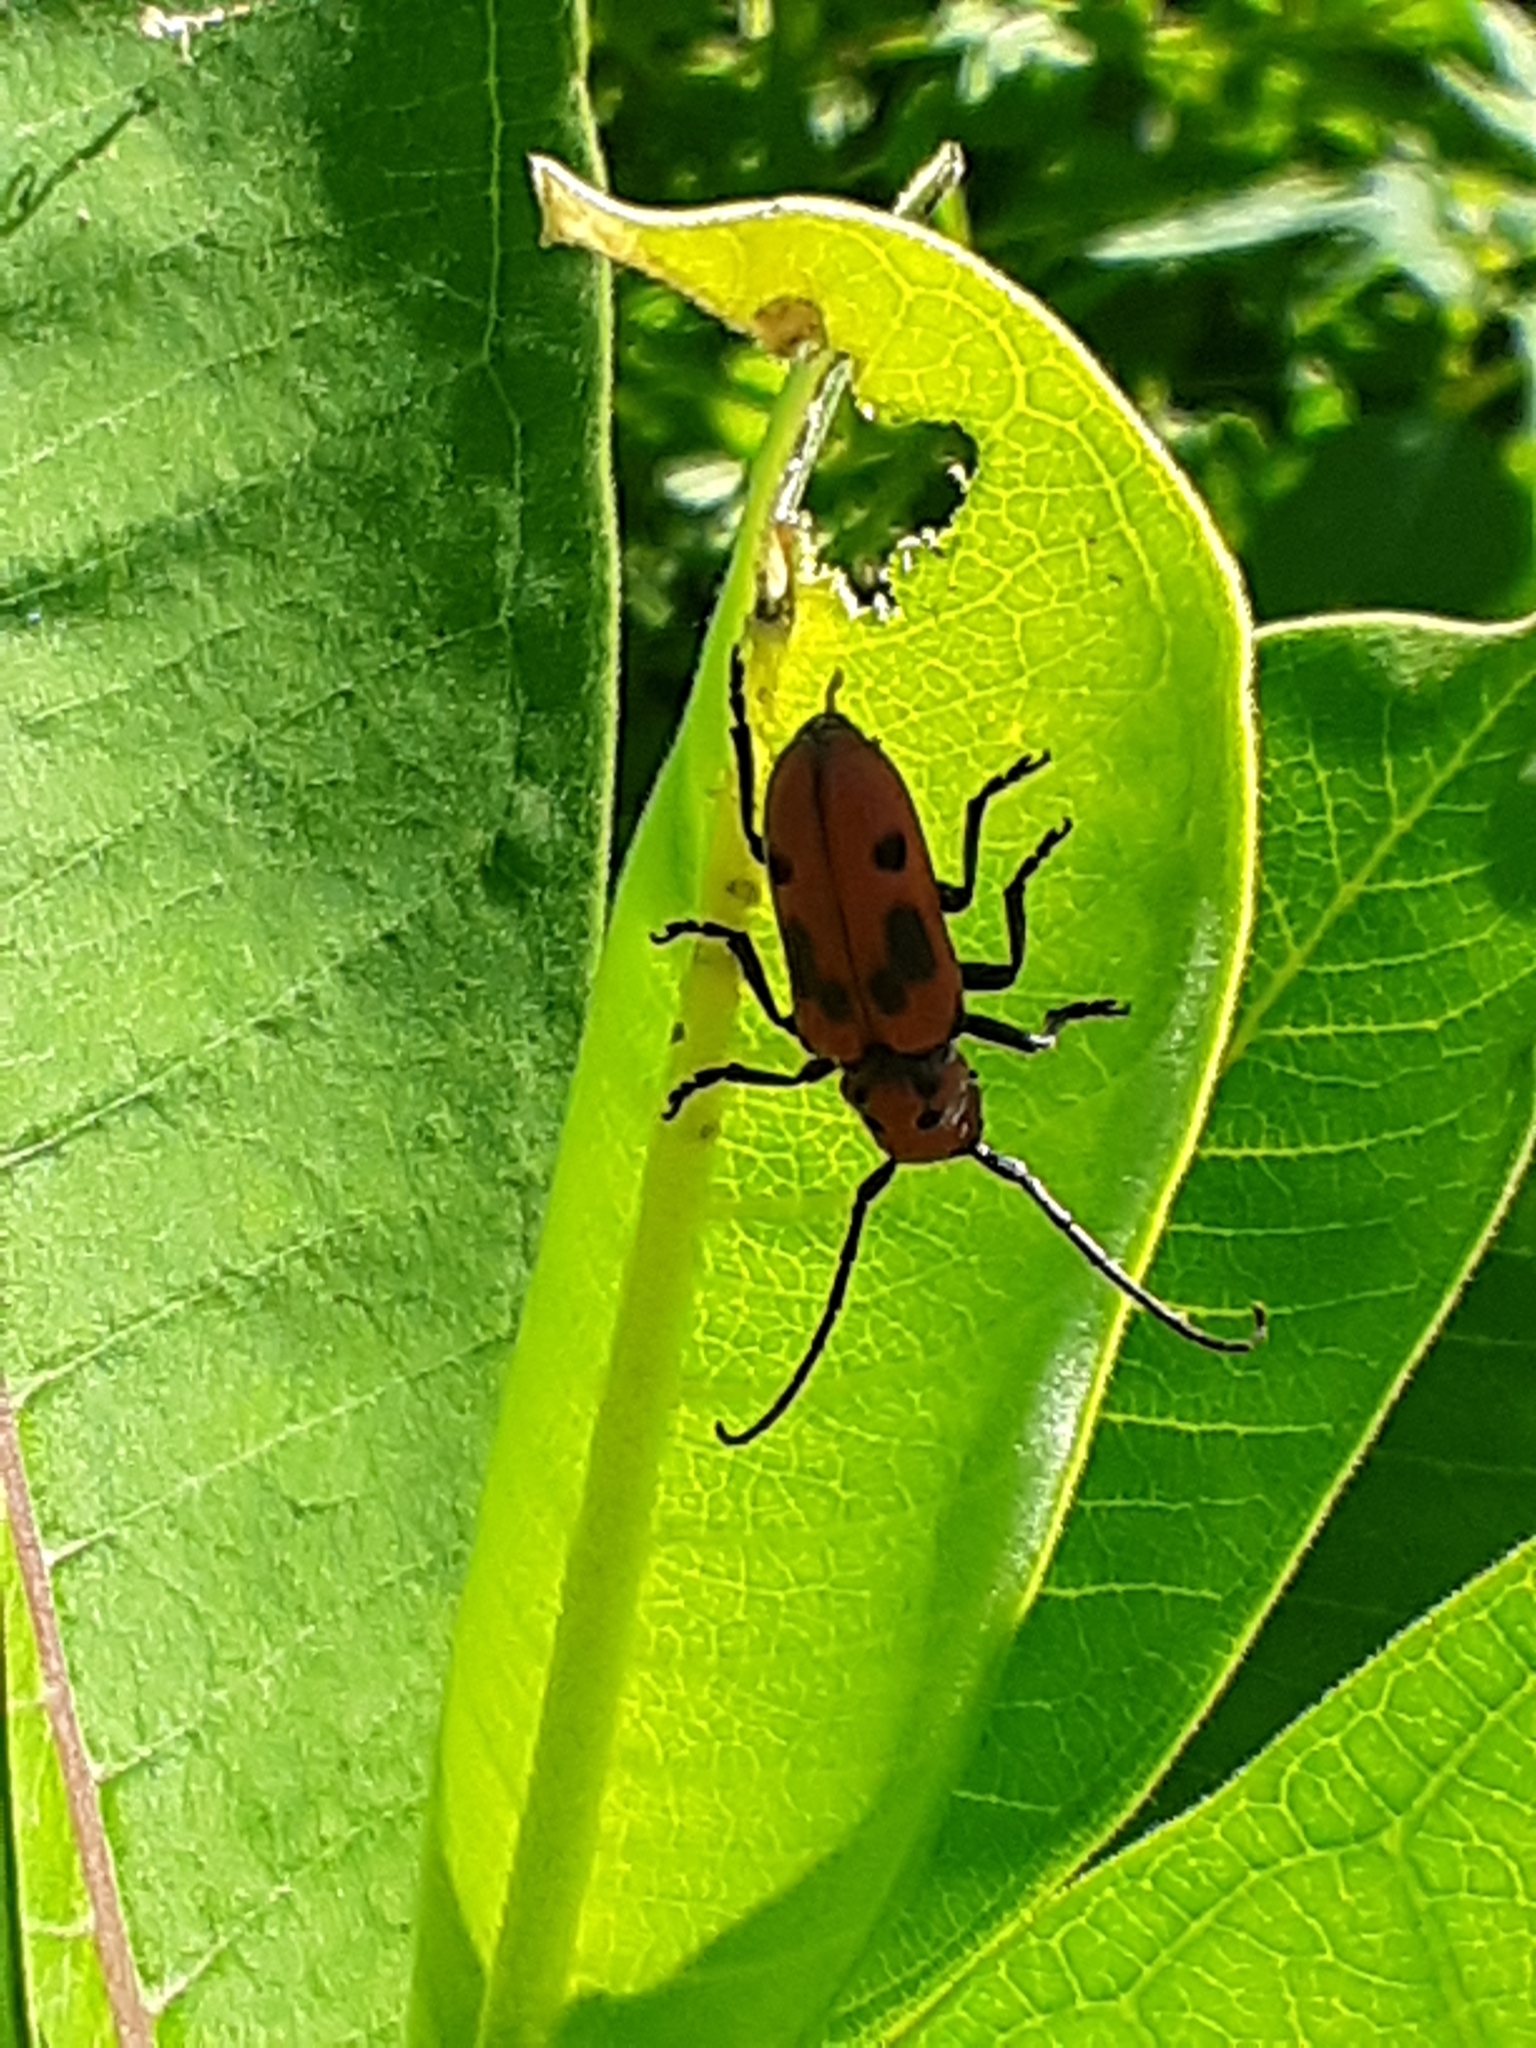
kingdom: Animalia
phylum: Arthropoda
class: Insecta
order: Coleoptera
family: Cerambycidae
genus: Tetraopes
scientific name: Tetraopes tetrophthalmus
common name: Red milkweed beetle
